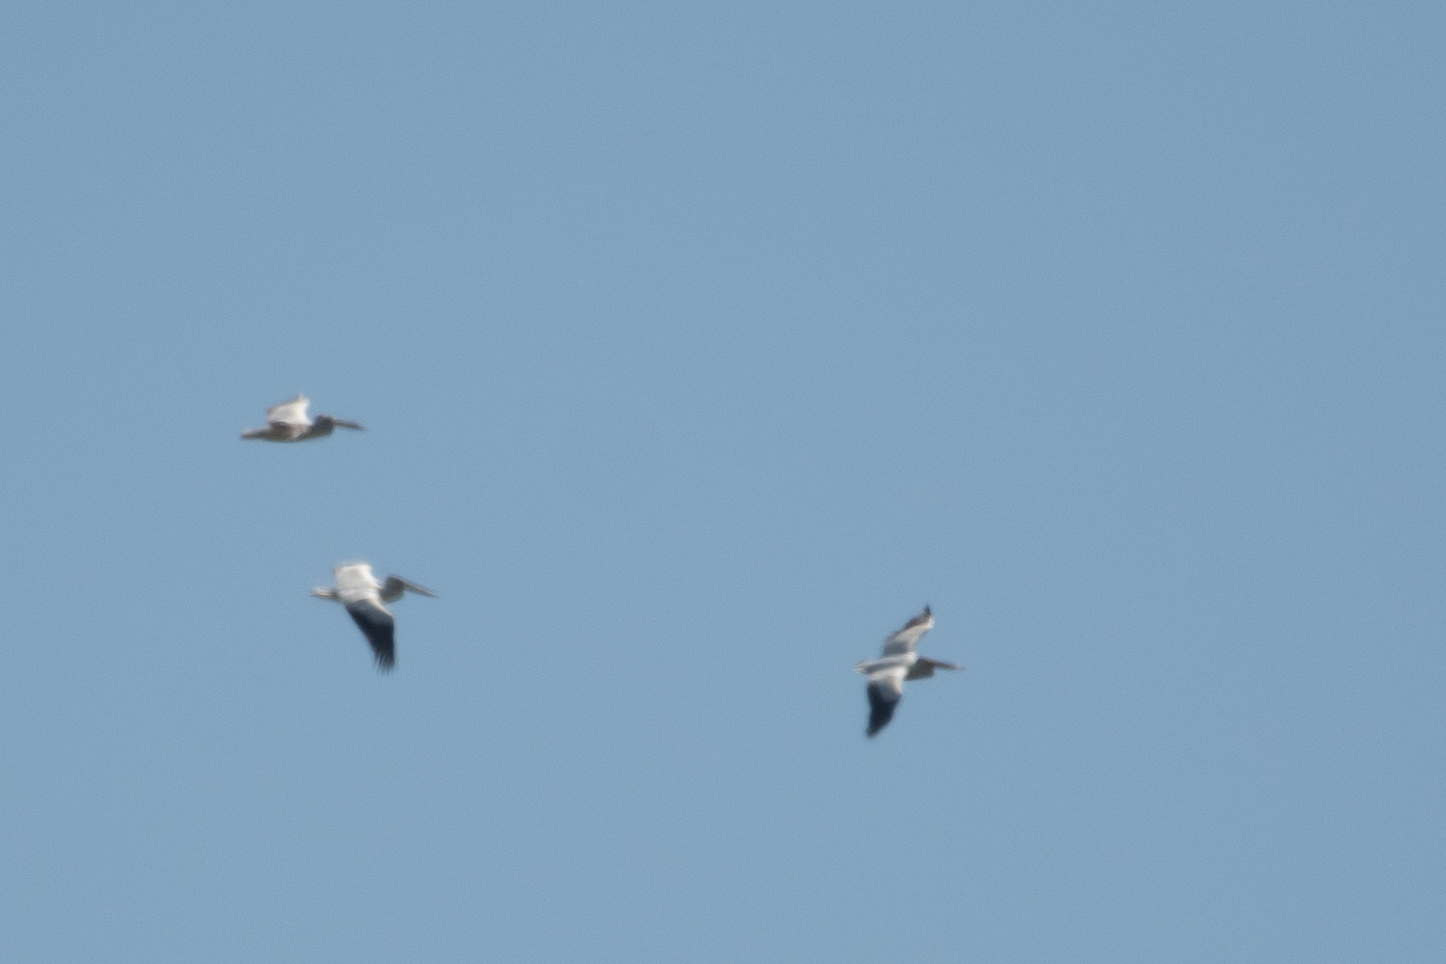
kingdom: Animalia
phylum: Chordata
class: Aves
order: Pelecaniformes
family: Pelecanidae
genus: Pelecanus
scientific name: Pelecanus erythrorhynchos
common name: American white pelican
